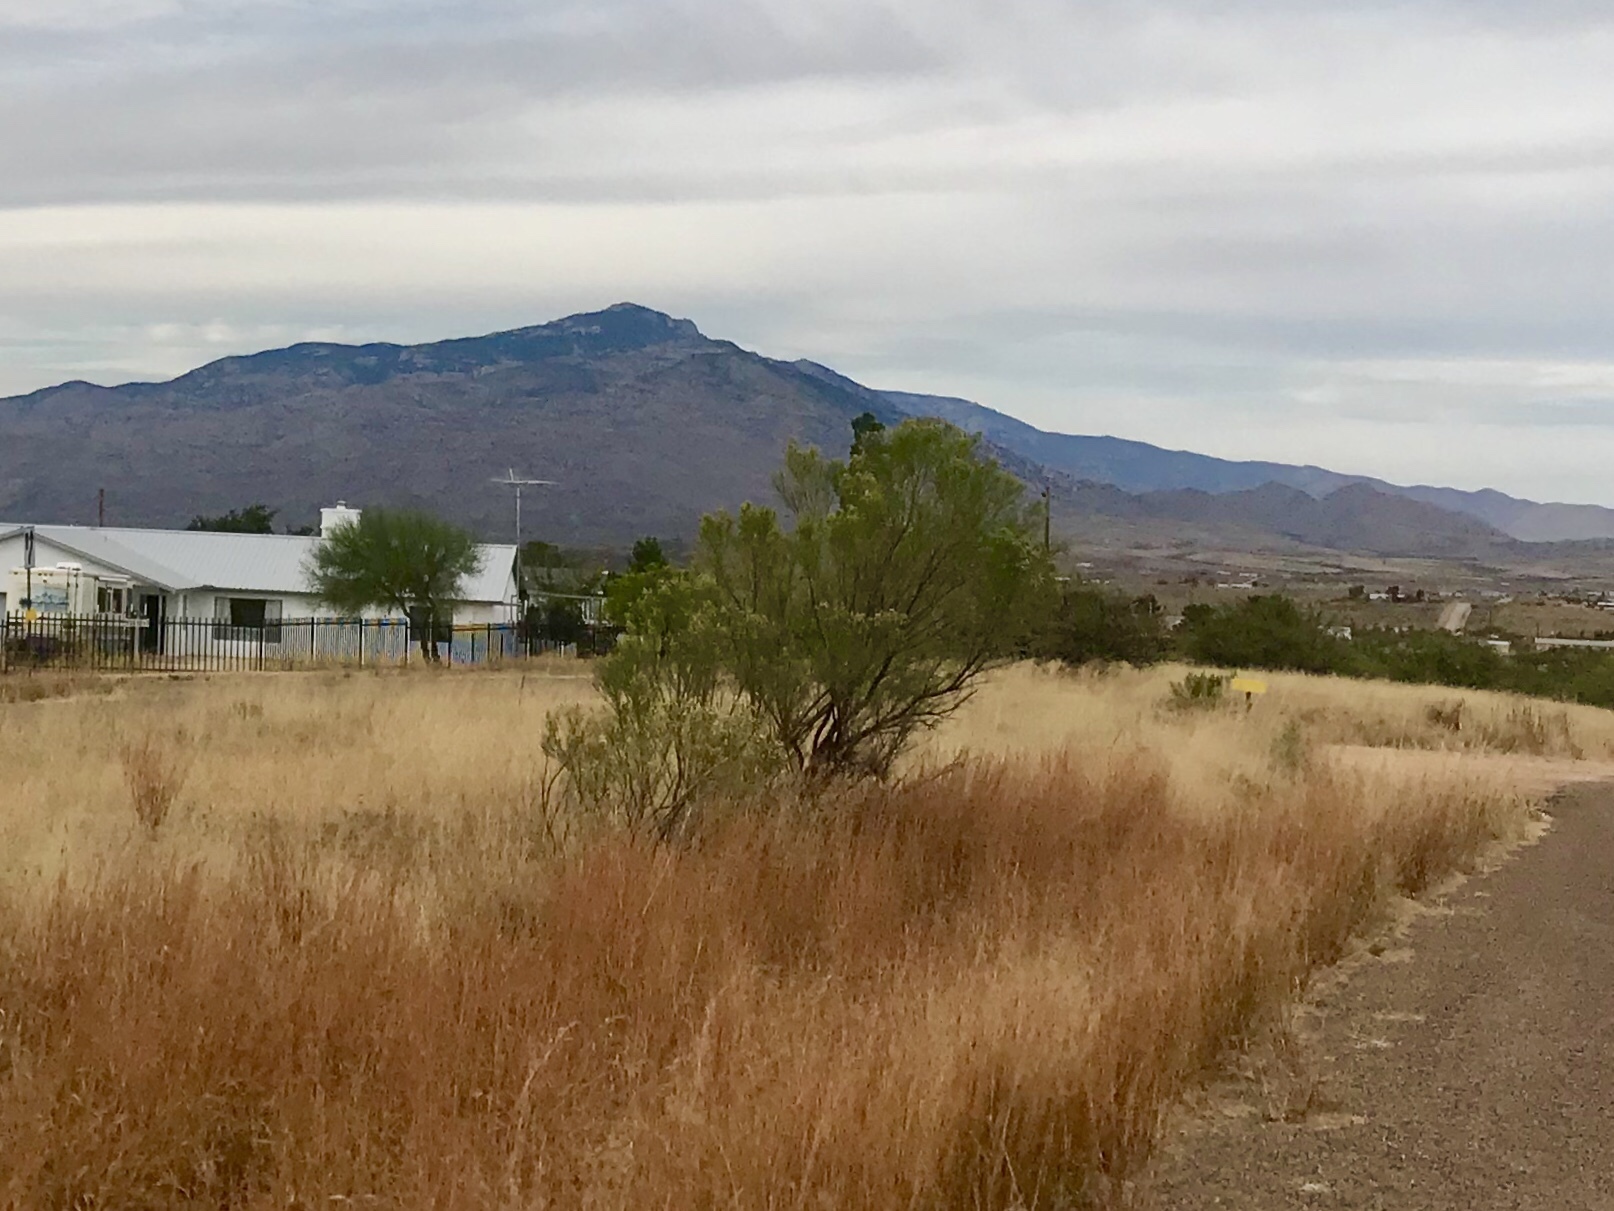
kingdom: Plantae
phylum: Tracheophyta
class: Magnoliopsida
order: Asterales
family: Asteraceae
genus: Baccharis
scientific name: Baccharis sarothroides
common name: Desert-broom
